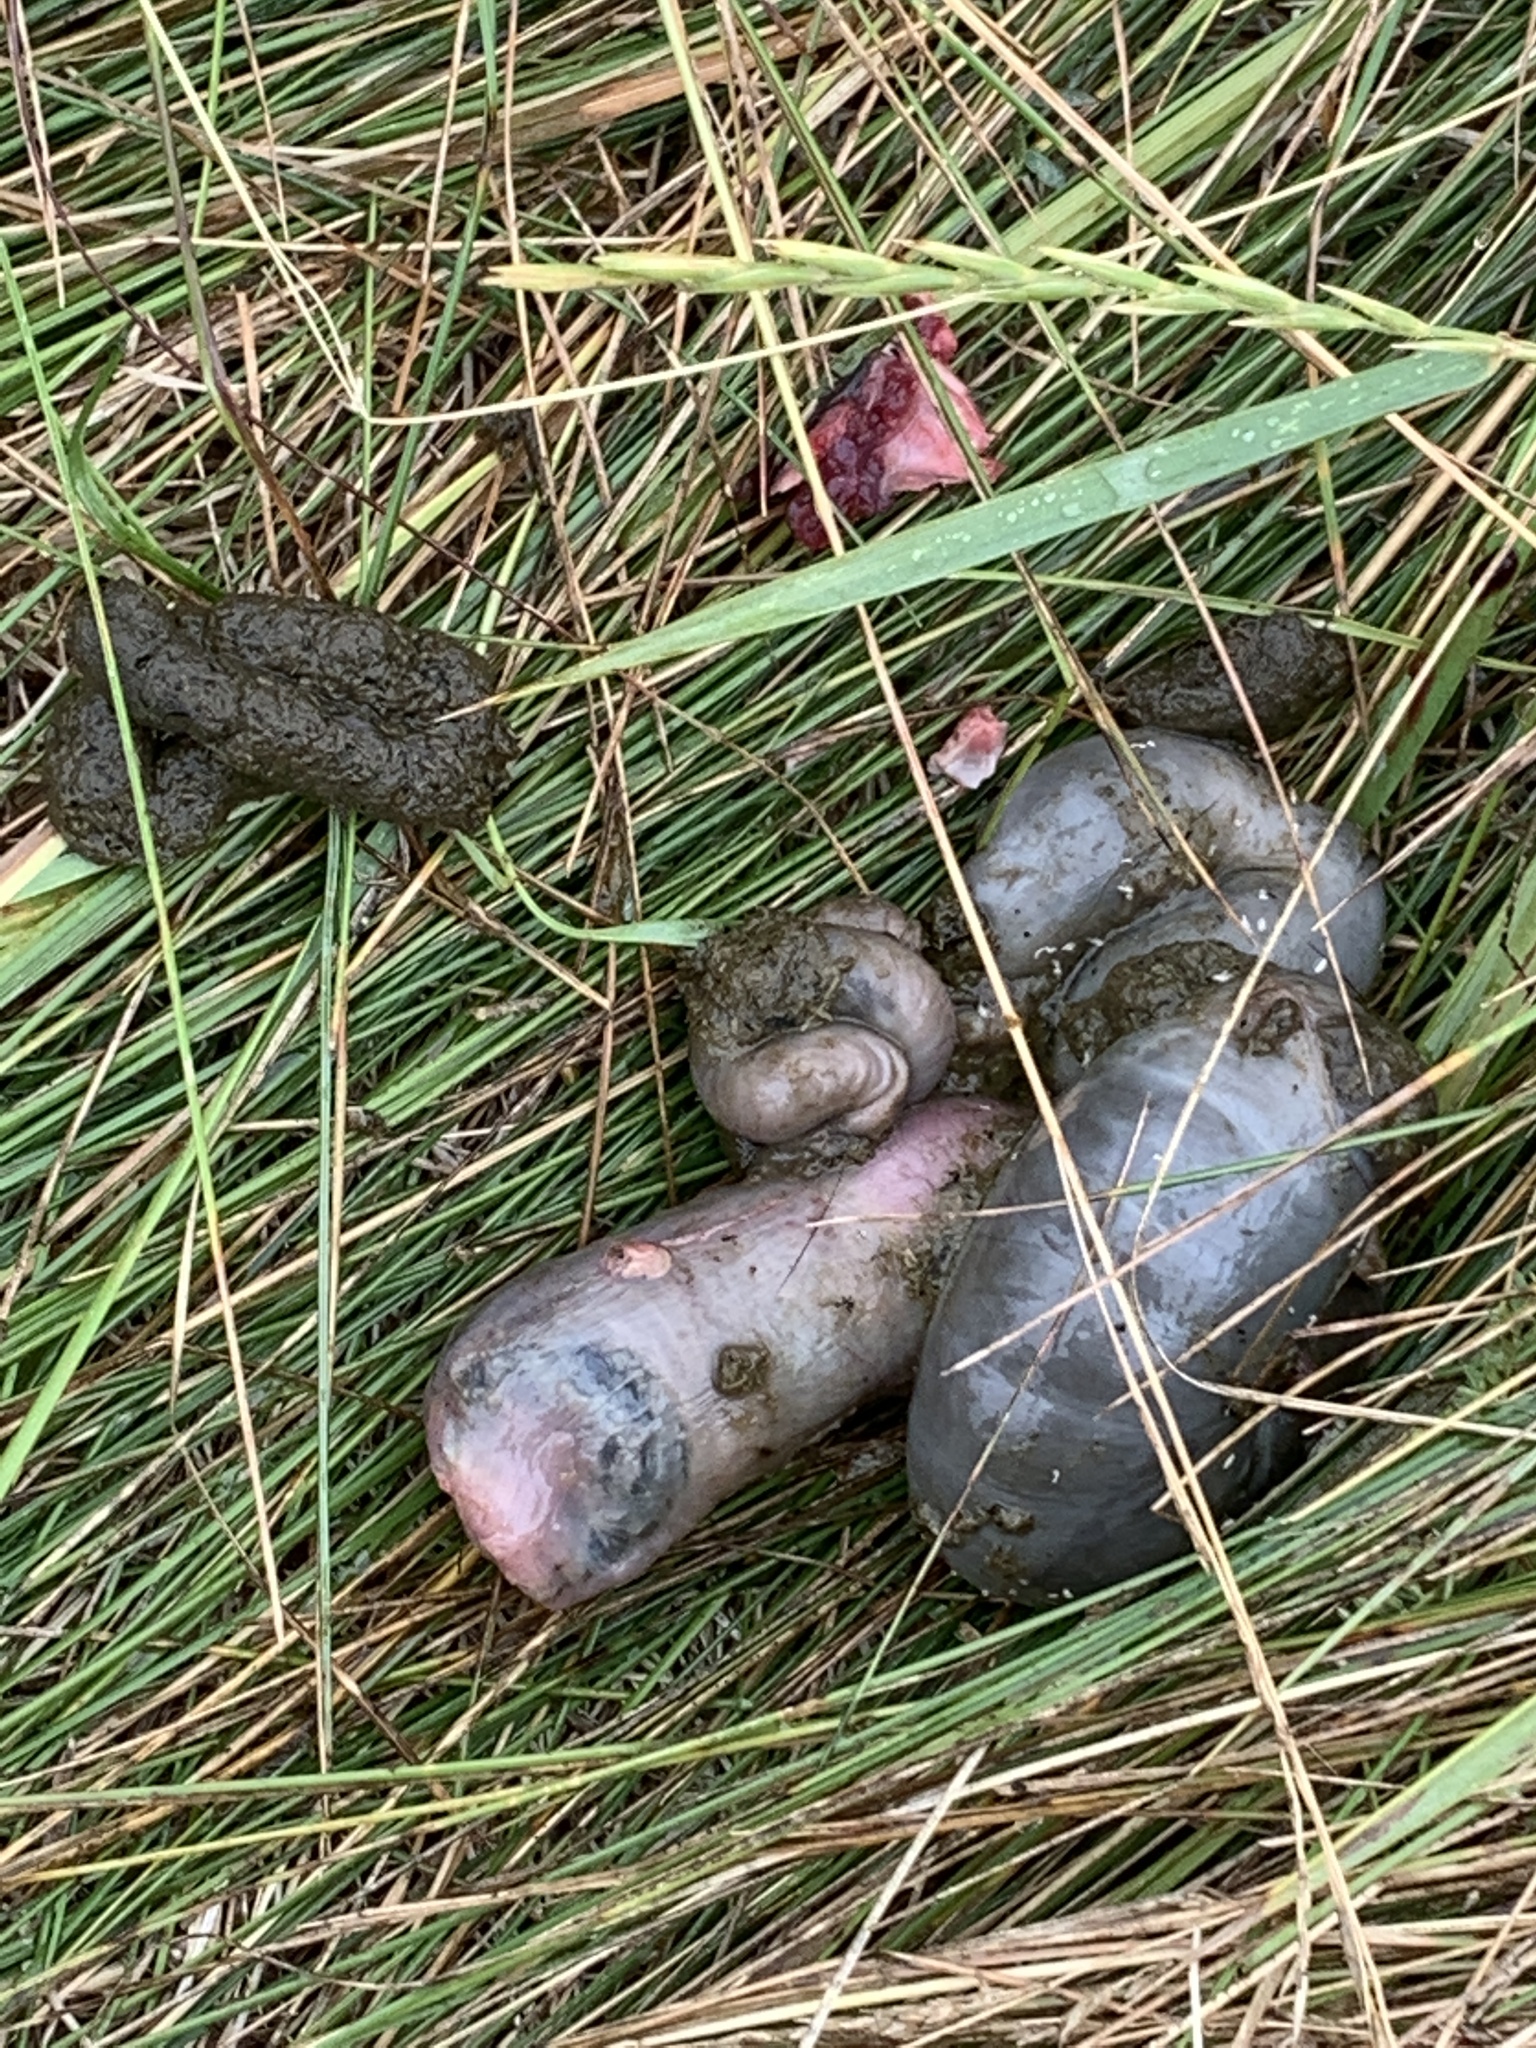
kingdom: Animalia
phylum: Chordata
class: Mammalia
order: Rodentia
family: Cricetidae
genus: Ondatra
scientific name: Ondatra zibethicus
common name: Muskrat
